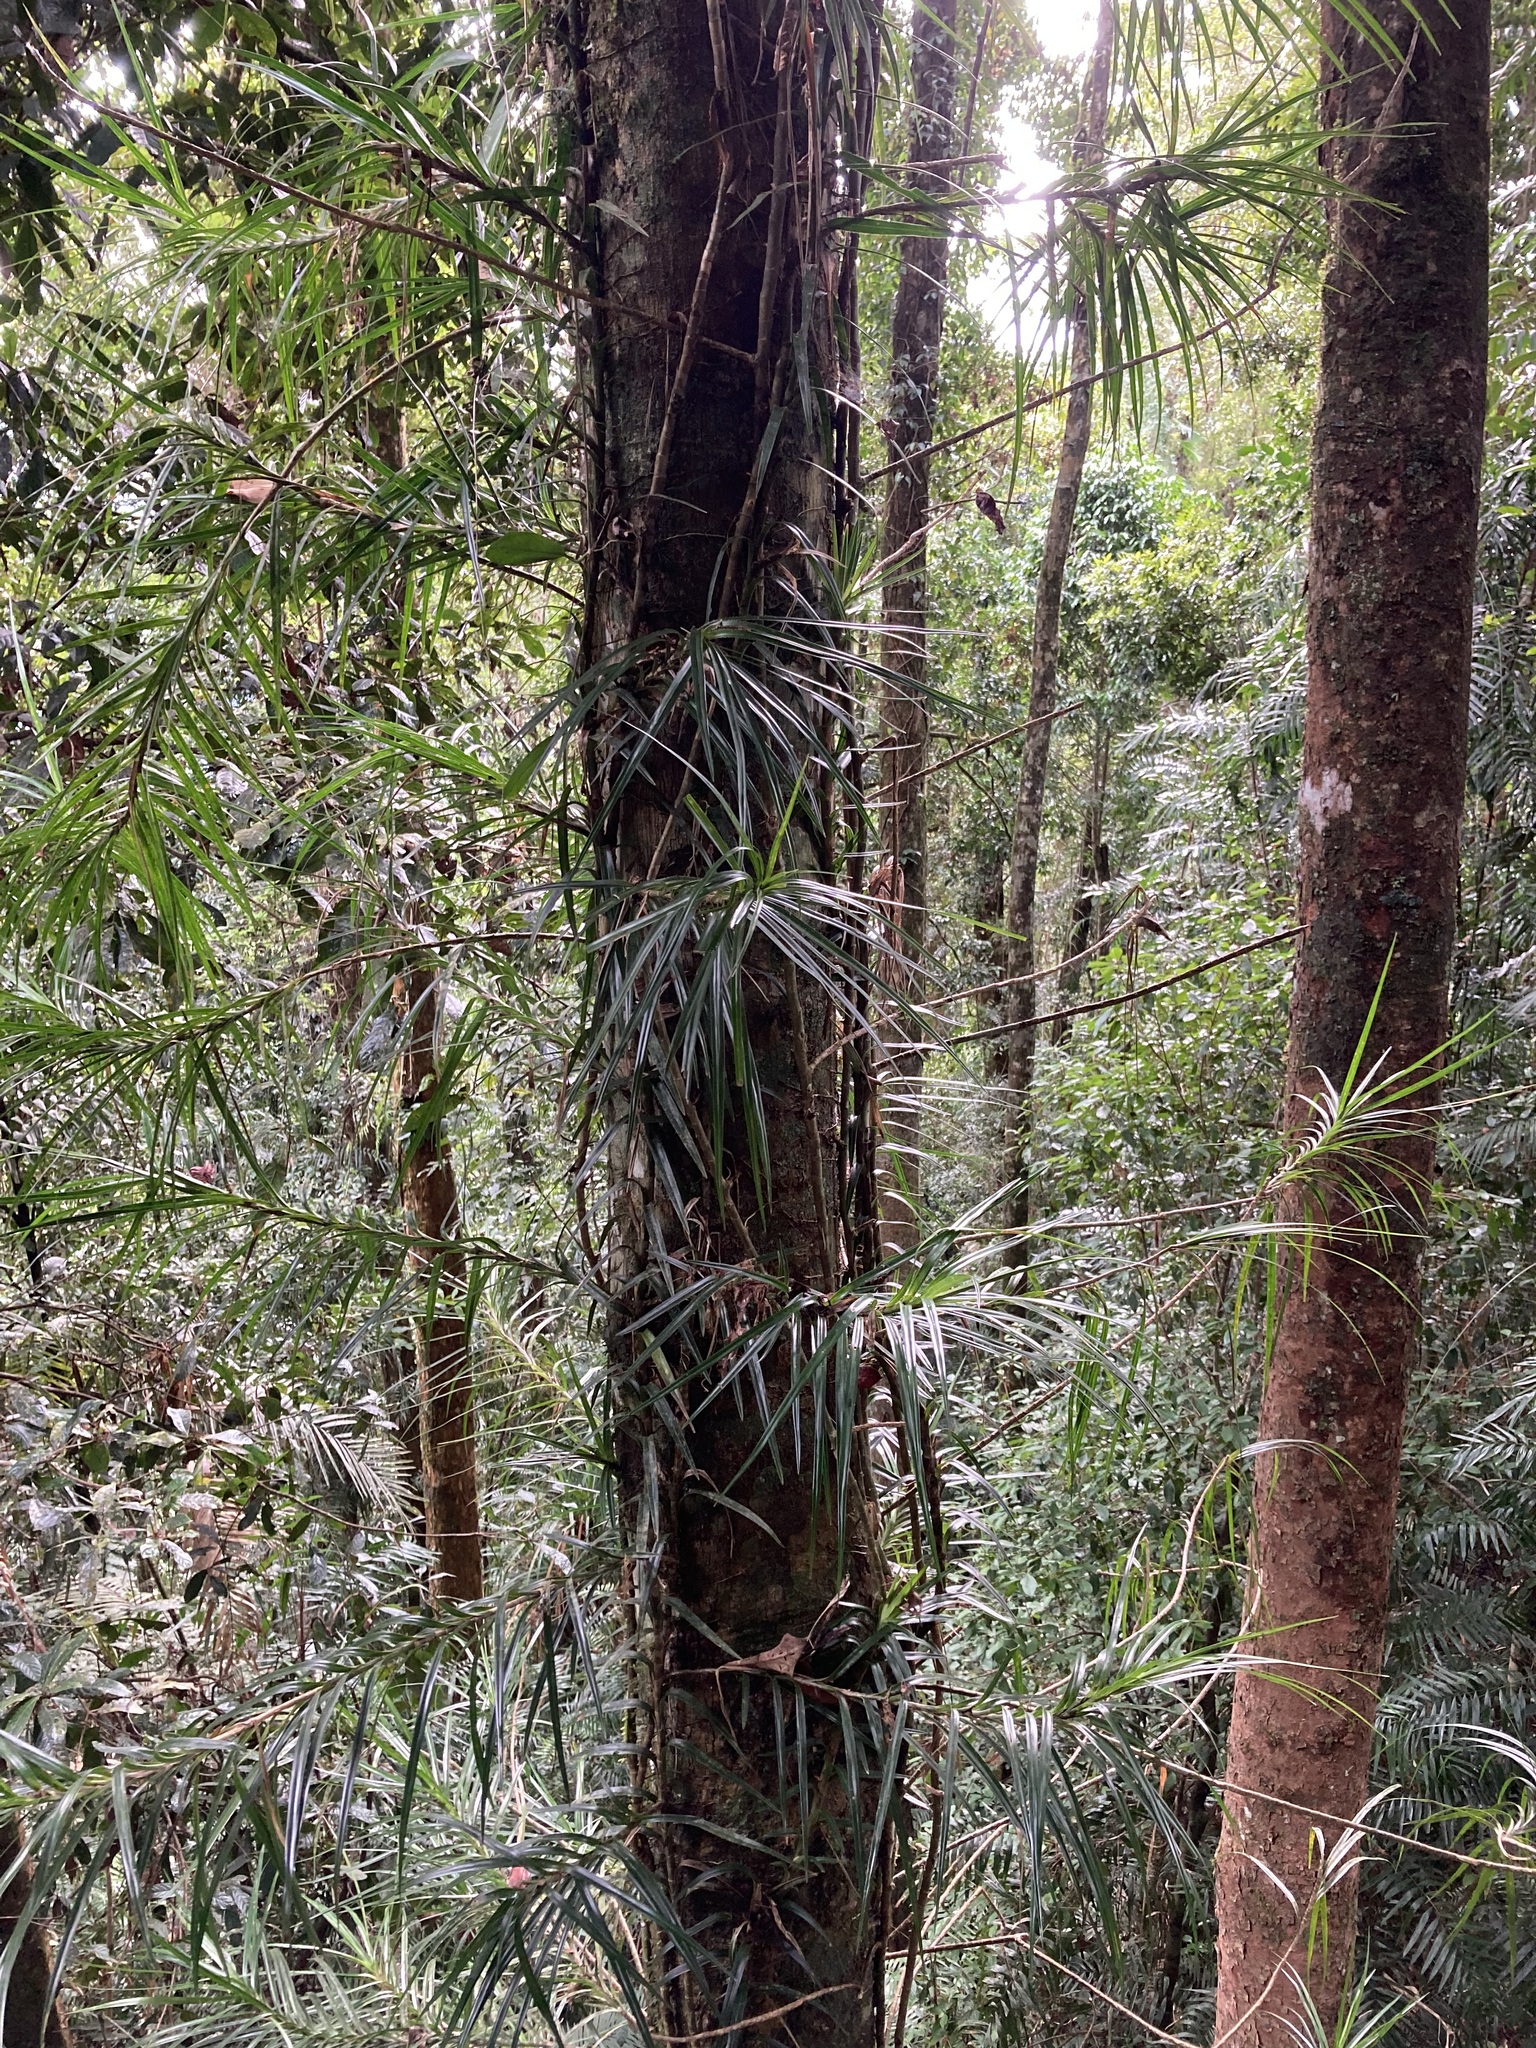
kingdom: Plantae
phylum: Tracheophyta
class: Liliopsida
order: Pandanales
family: Pandanaceae
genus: Freycinetia
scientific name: Freycinetia excelsa
